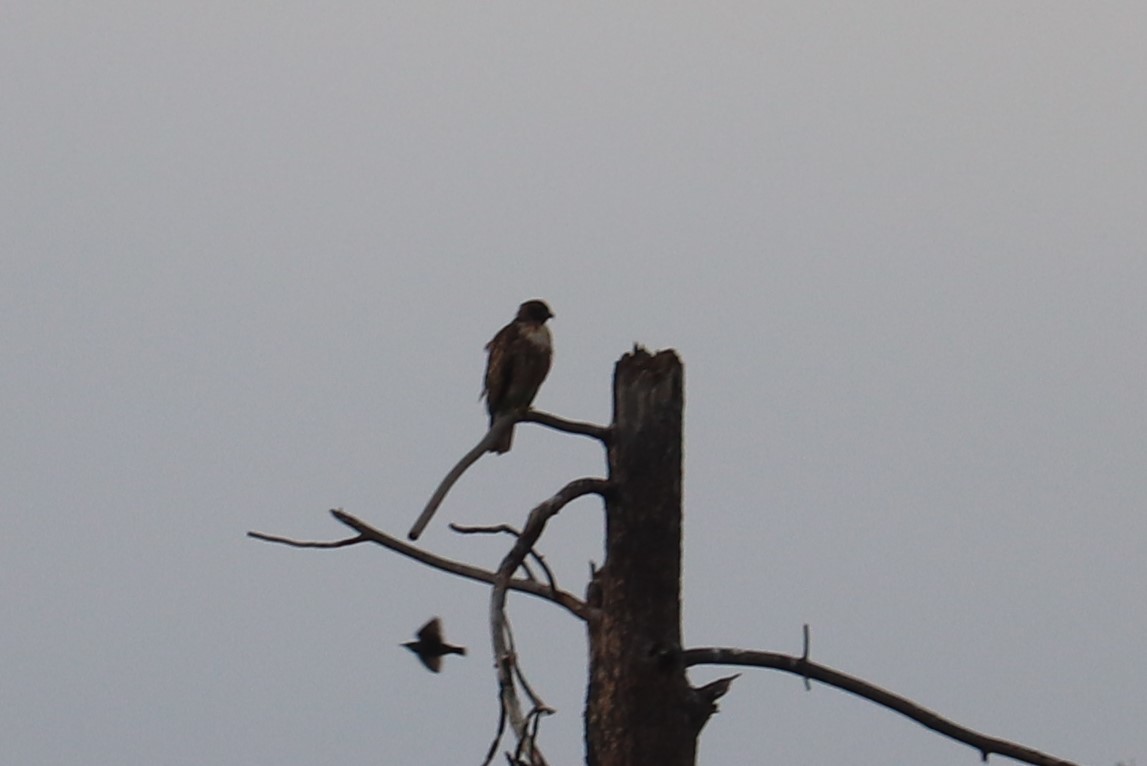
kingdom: Animalia
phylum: Chordata
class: Aves
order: Accipitriformes
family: Accipitridae
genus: Buteo
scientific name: Buteo jamaicensis
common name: Red-tailed hawk
